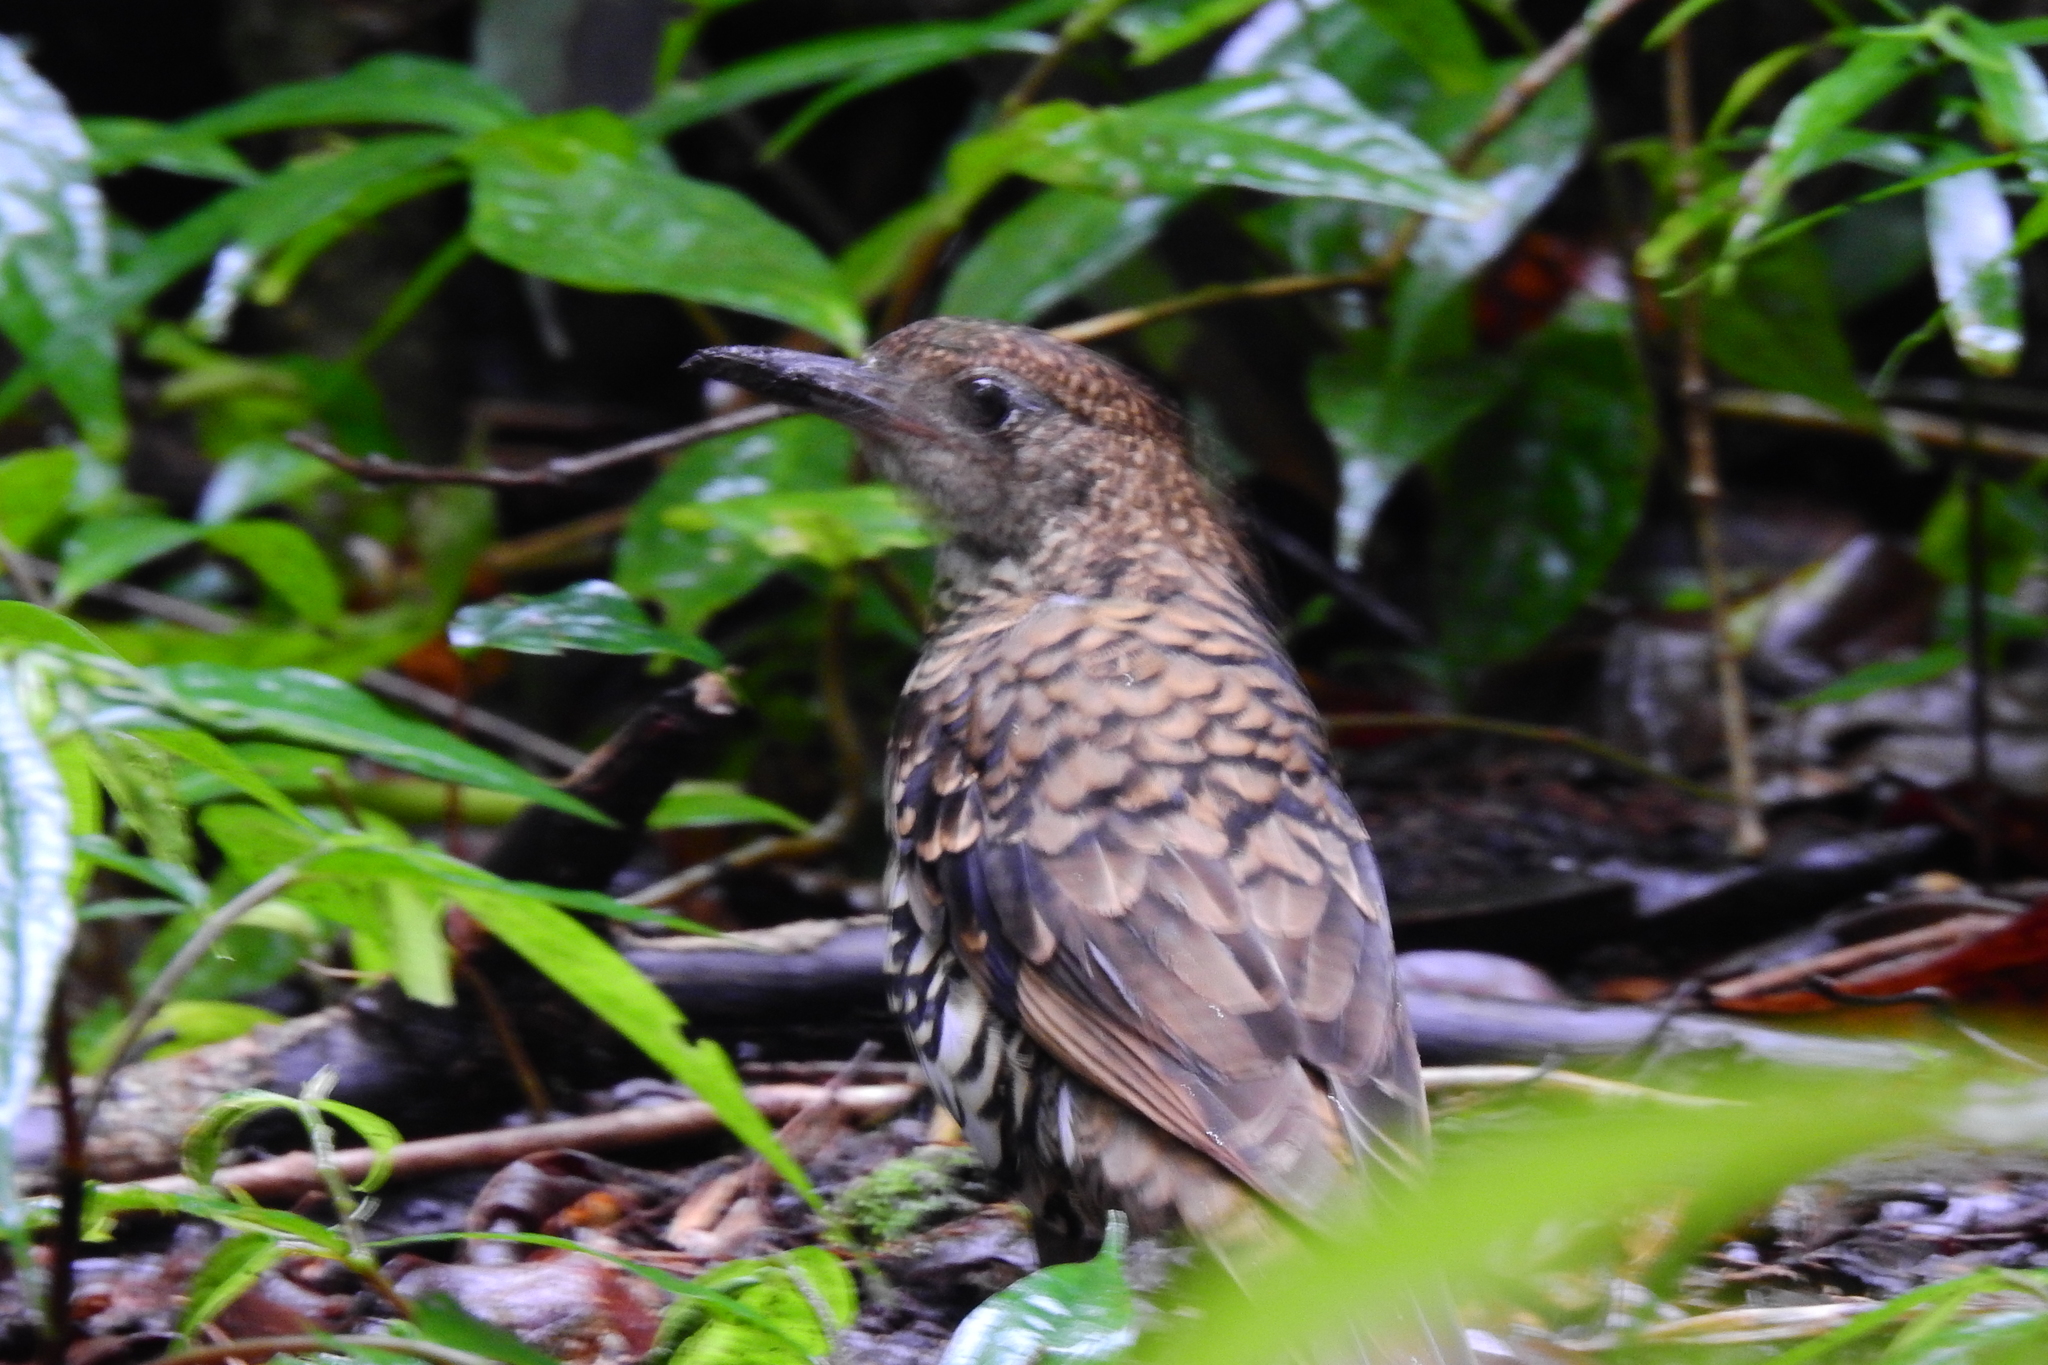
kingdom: Animalia
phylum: Chordata
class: Aves
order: Passeriformes
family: Turdidae
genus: Zoothera
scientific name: Zoothera dauma
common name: Scaly thrush
